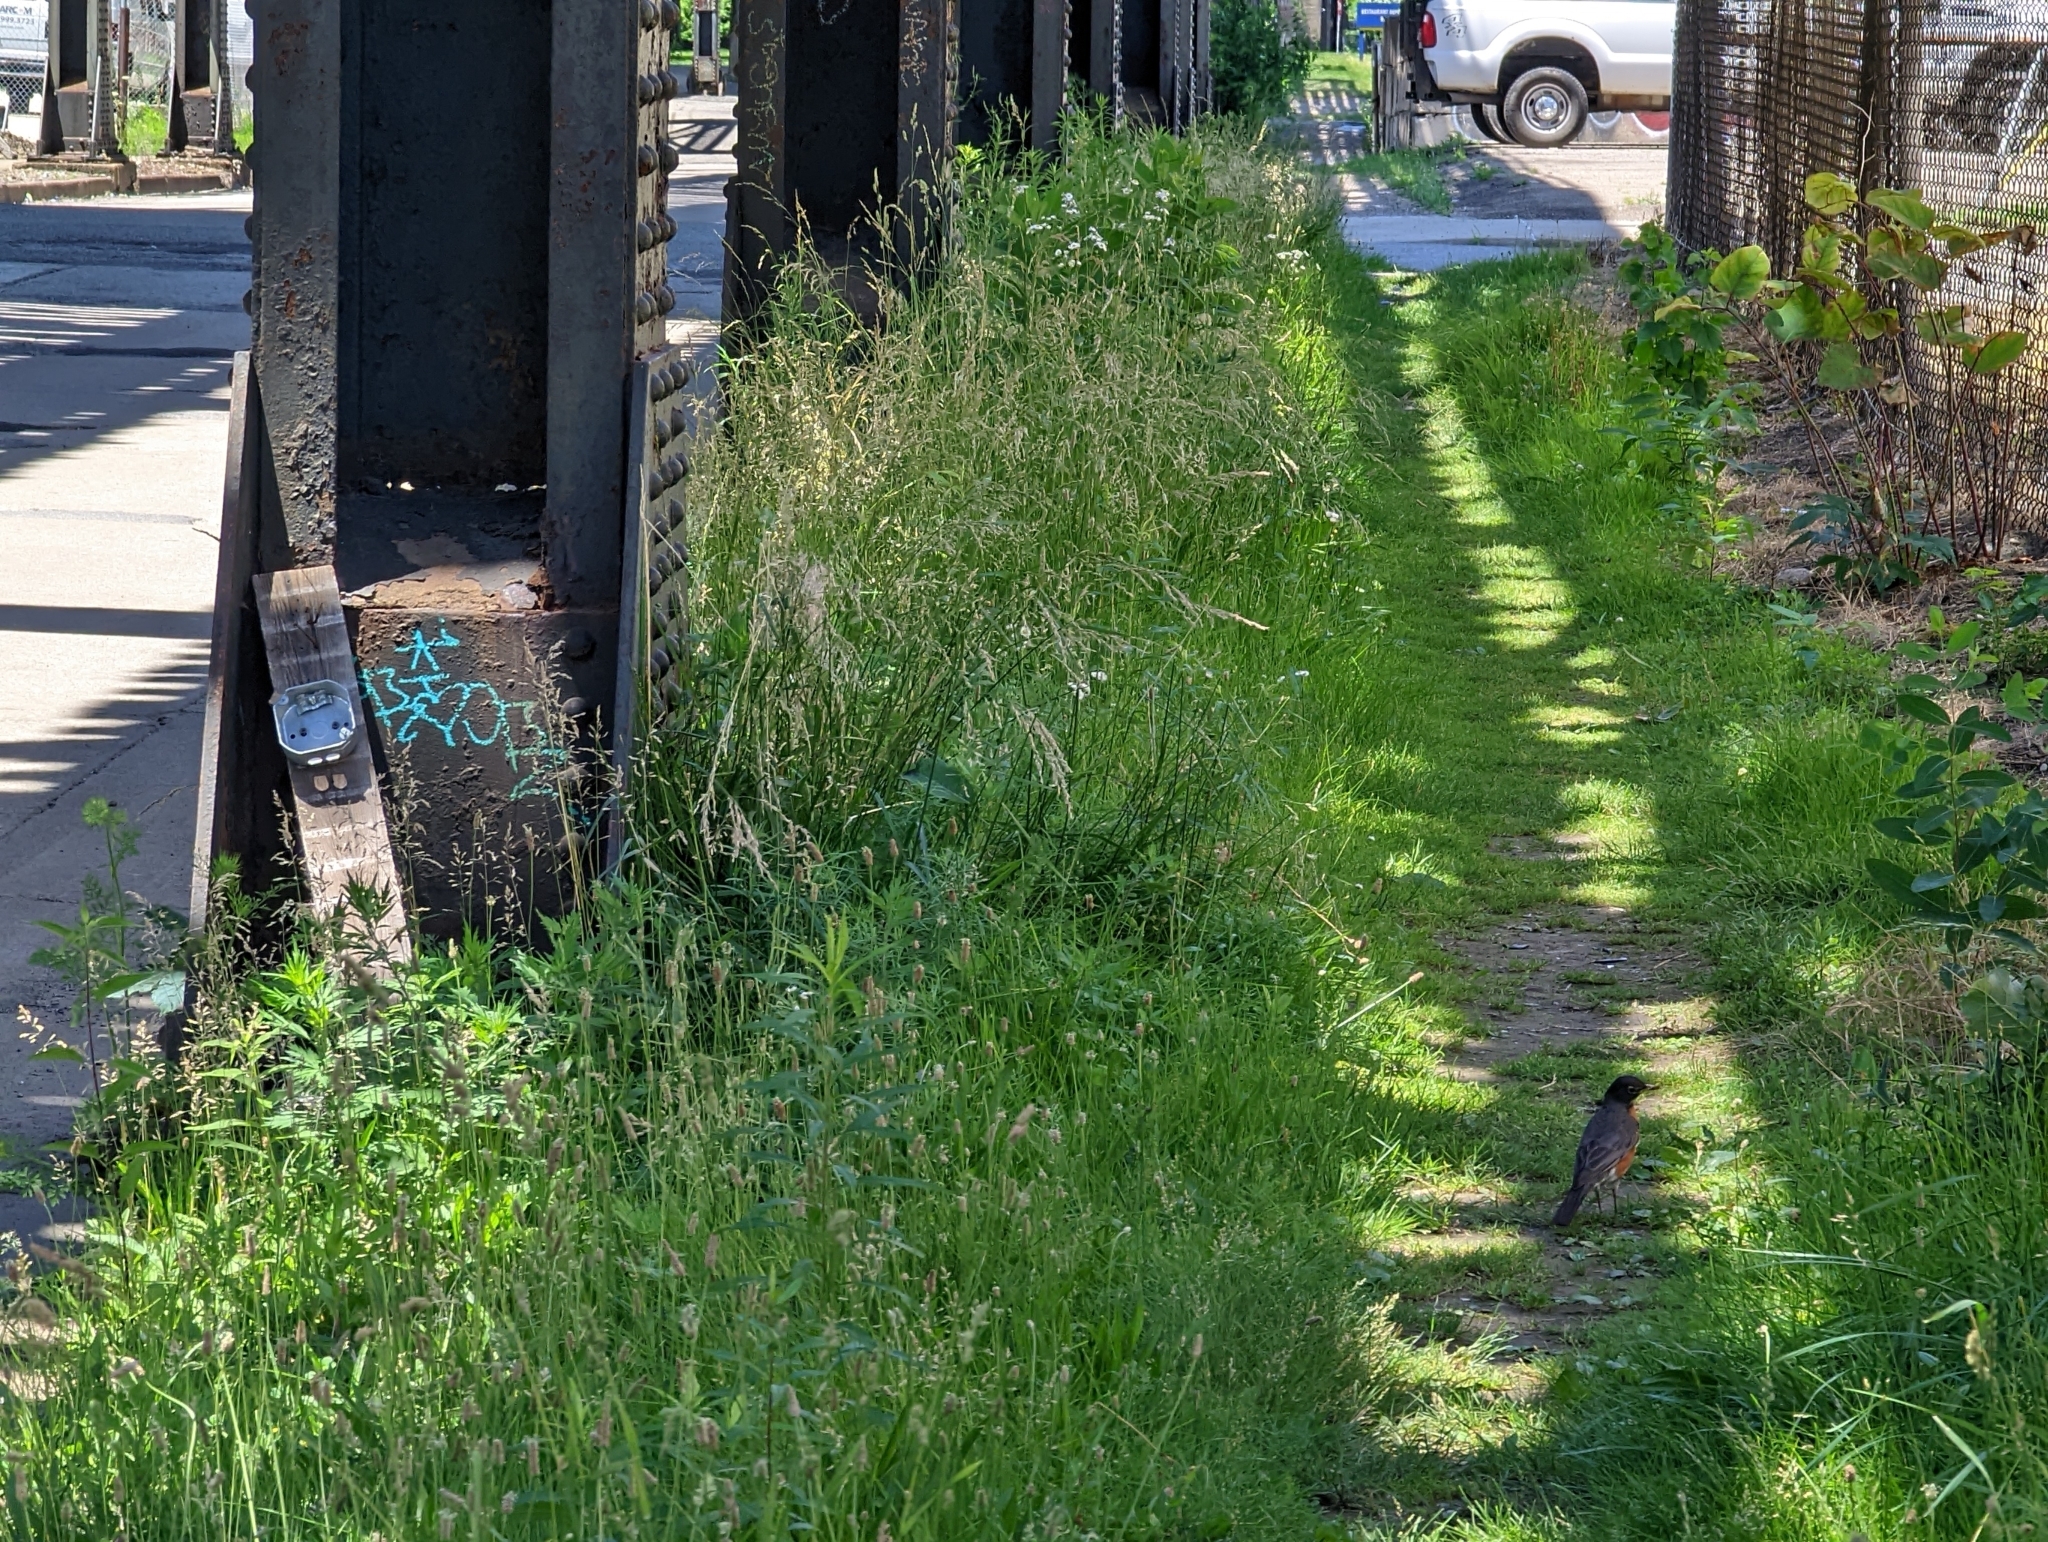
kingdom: Animalia
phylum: Chordata
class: Aves
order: Passeriformes
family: Turdidae
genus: Turdus
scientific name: Turdus migratorius
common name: American robin
